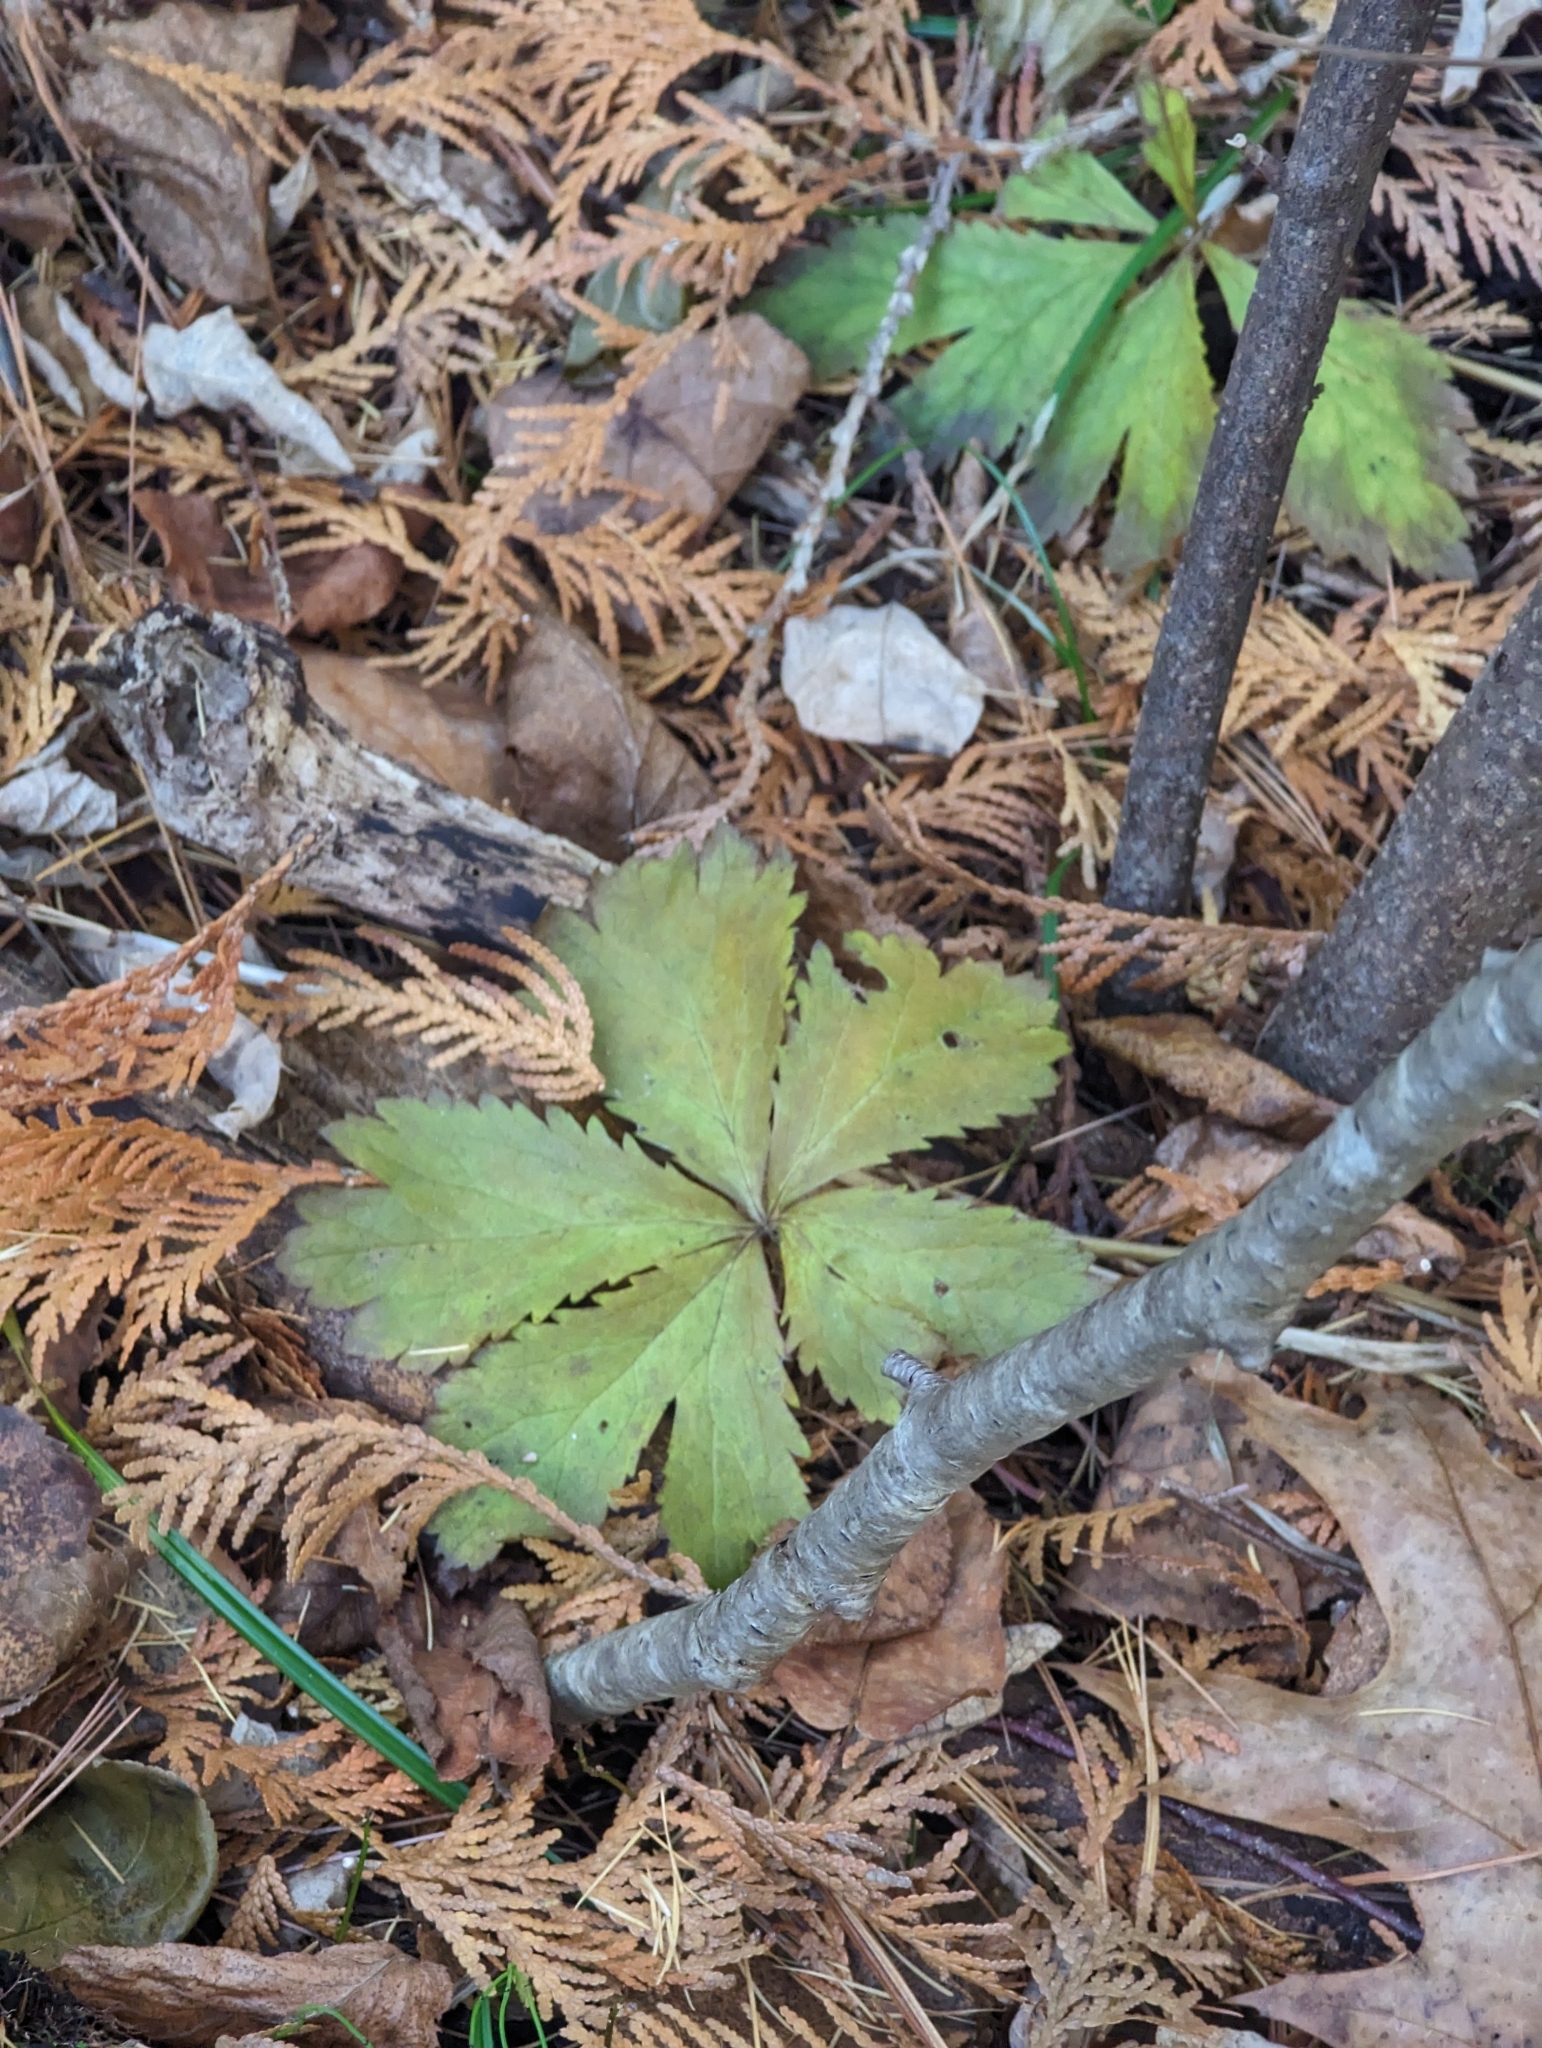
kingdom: Plantae
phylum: Tracheophyta
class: Magnoliopsida
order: Apiales
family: Apiaceae
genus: Sanicula
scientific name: Sanicula marilandica
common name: Black snakeroot
